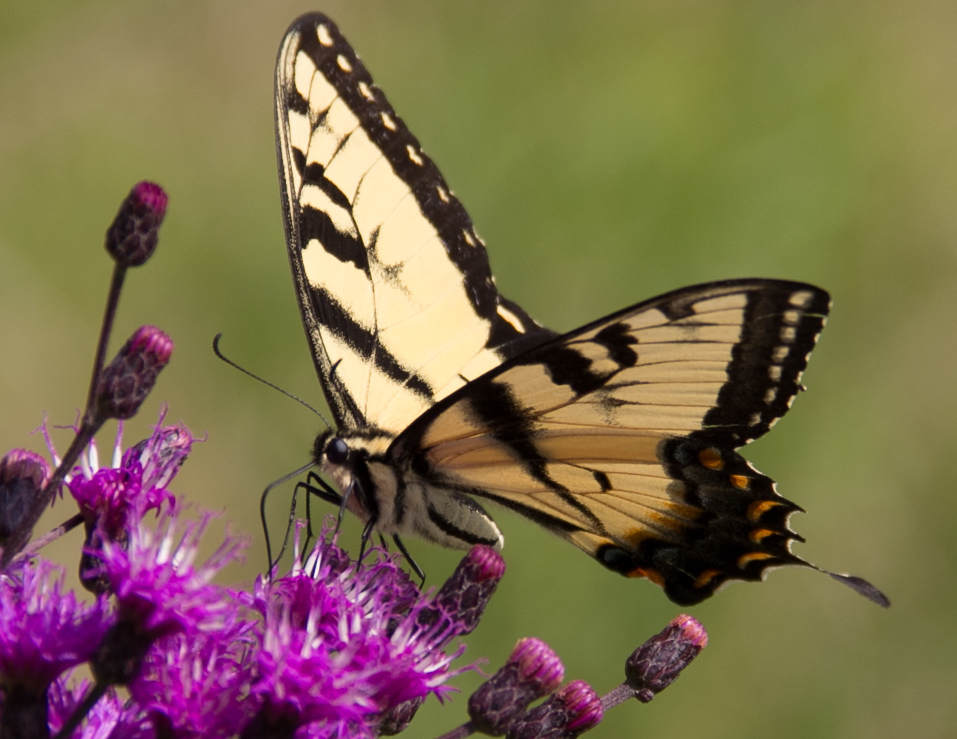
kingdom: Animalia
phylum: Arthropoda
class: Insecta
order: Lepidoptera
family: Papilionidae
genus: Papilio
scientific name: Papilio glaucus
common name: Tiger swallowtail
